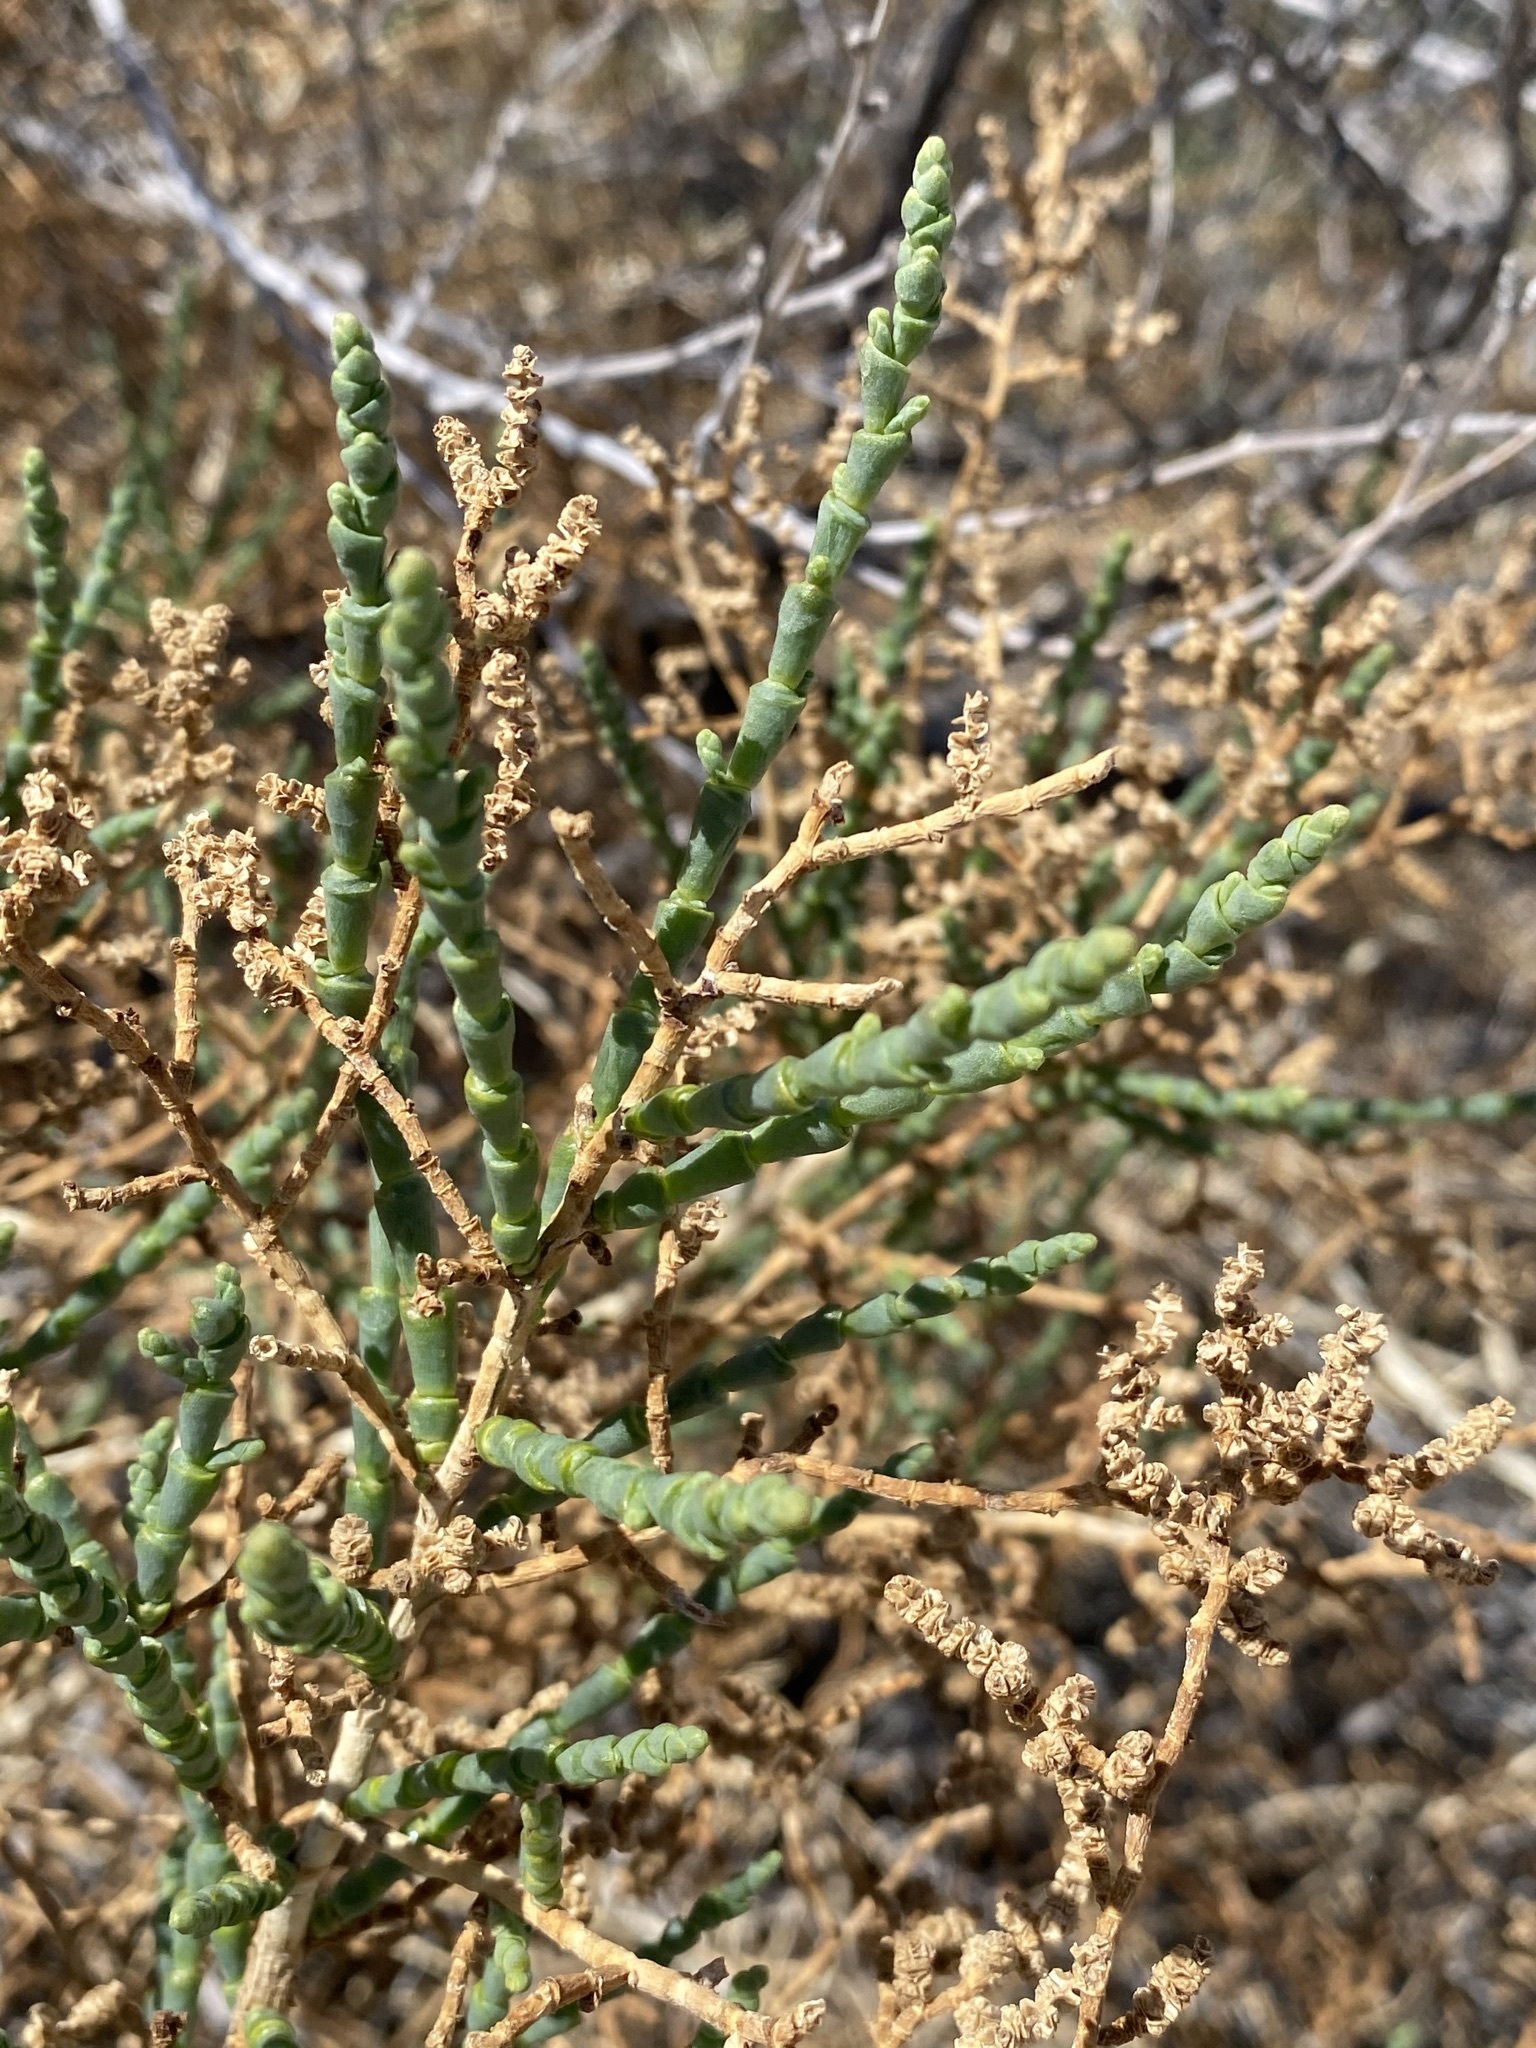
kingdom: Plantae
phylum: Tracheophyta
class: Magnoliopsida
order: Caryophyllales
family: Amaranthaceae
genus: Allenrolfea
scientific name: Allenrolfea occidentalis
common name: Iodine-bush
